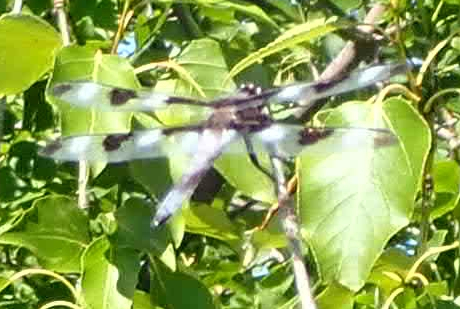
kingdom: Animalia
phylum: Arthropoda
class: Insecta
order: Odonata
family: Libellulidae
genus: Libellula
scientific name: Libellula pulchella
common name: Twelve-spotted skimmer
